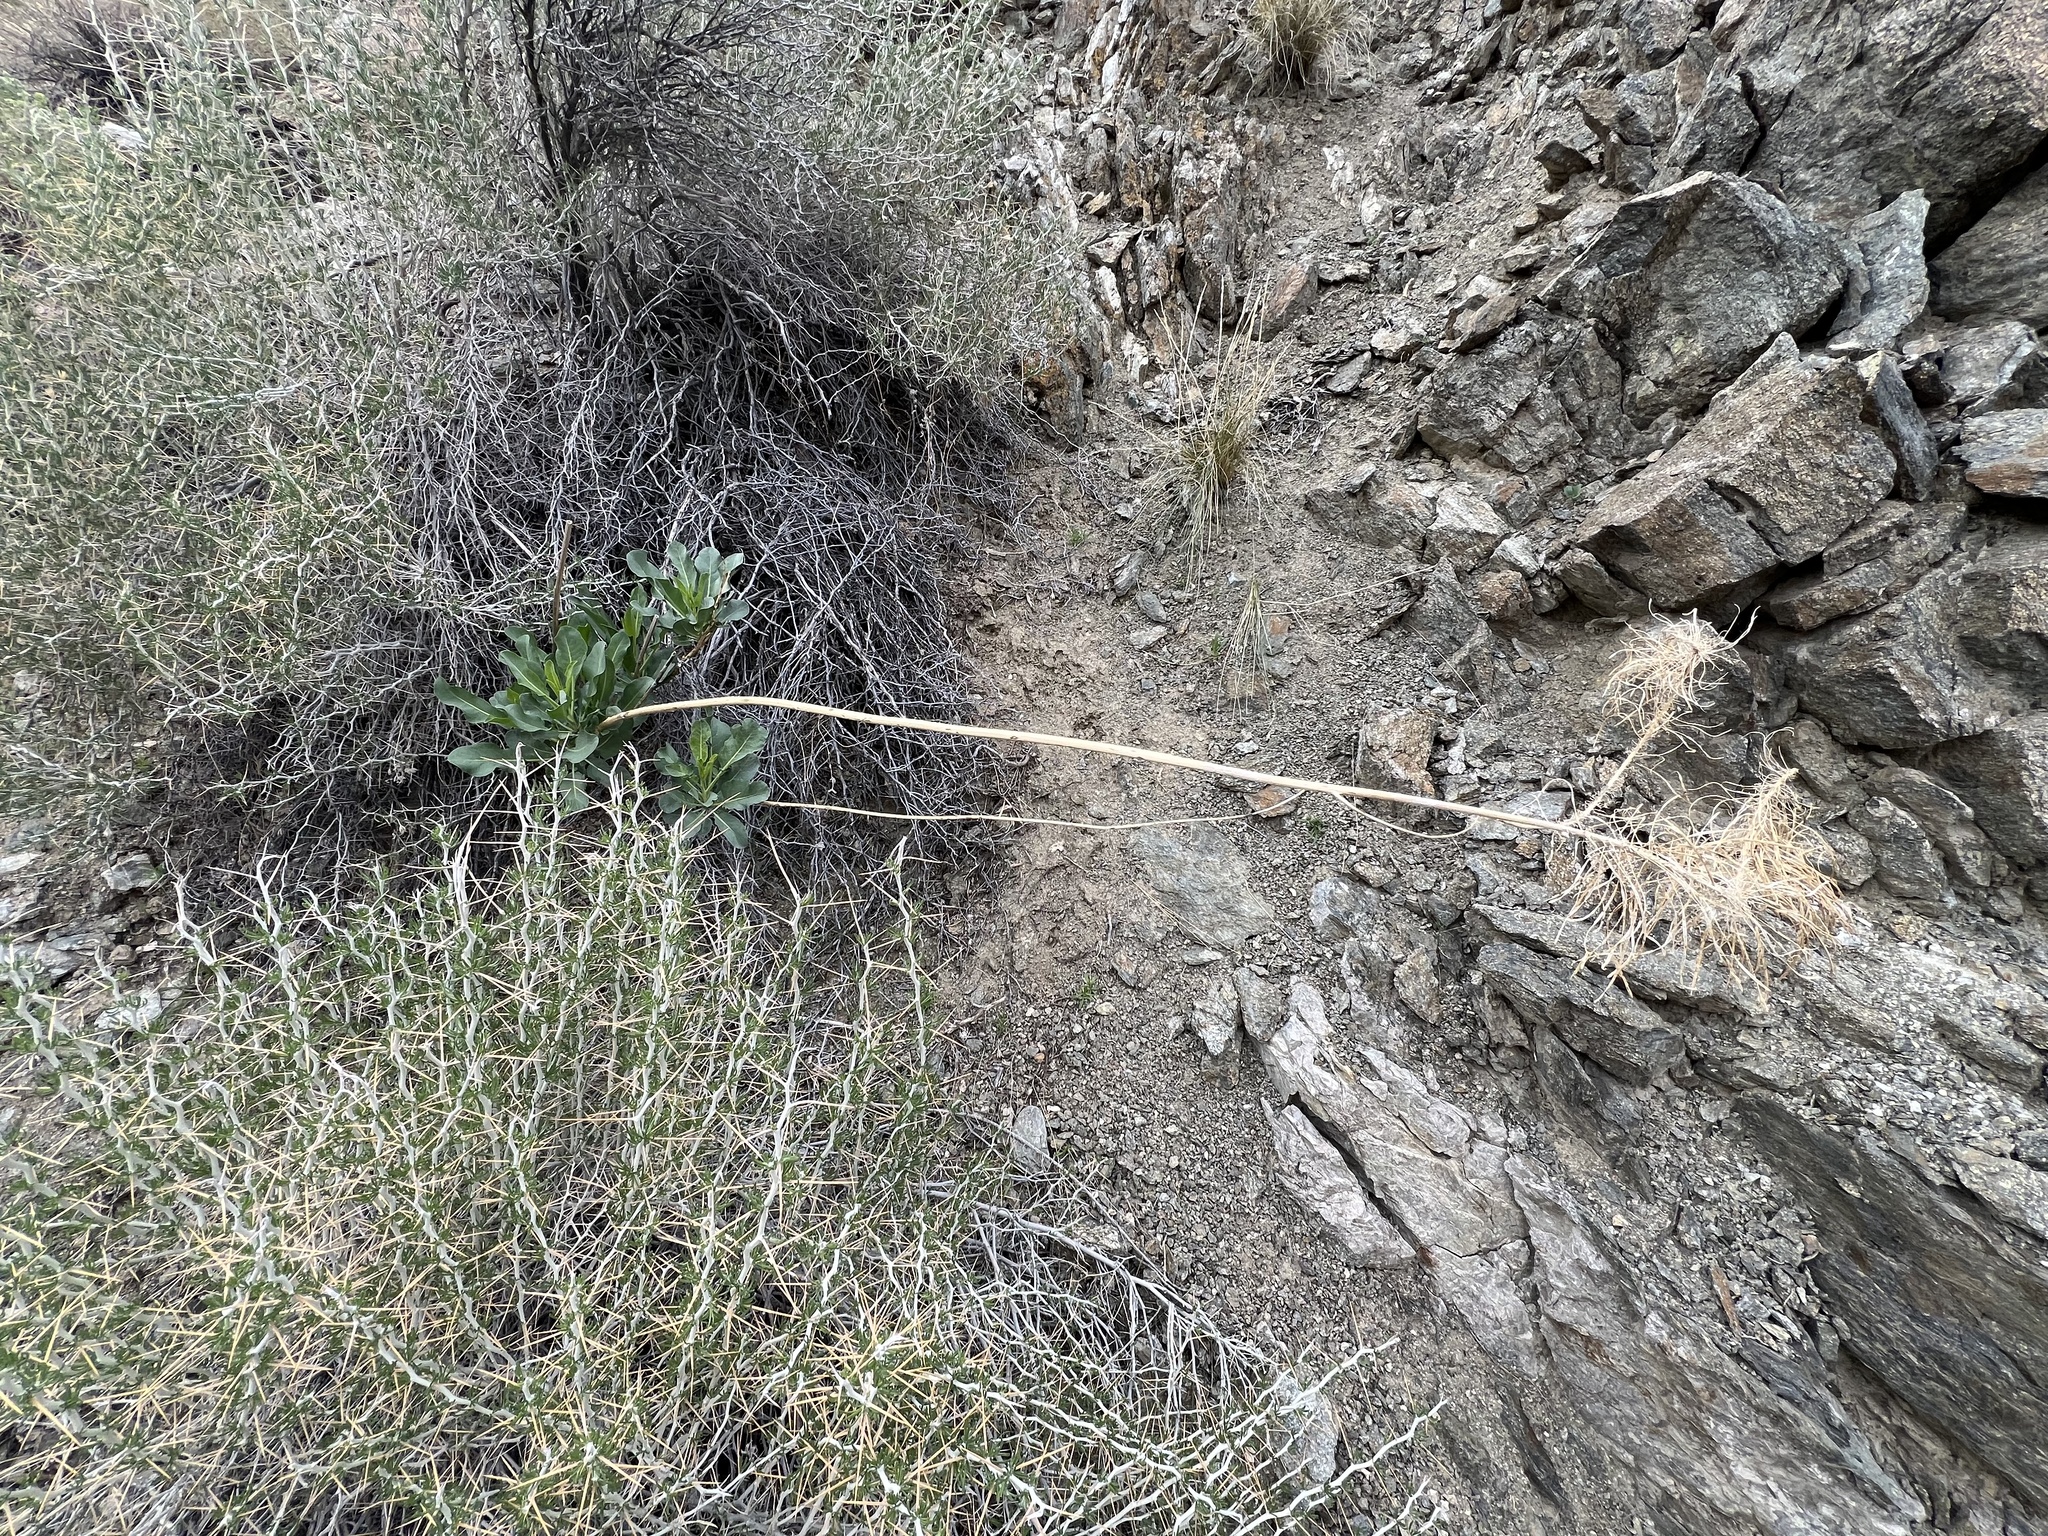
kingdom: Plantae
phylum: Tracheophyta
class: Magnoliopsida
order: Brassicales
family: Brassicaceae
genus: Stanleya
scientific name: Stanleya elata
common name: Panamint prince's plume
